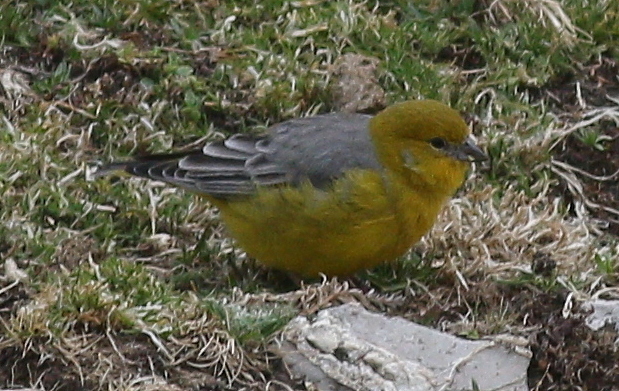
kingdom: Animalia
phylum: Chordata
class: Aves
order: Passeriformes
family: Thraupidae
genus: Sicalis
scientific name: Sicalis uropigyalis
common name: Bright-rumped yellow finch
